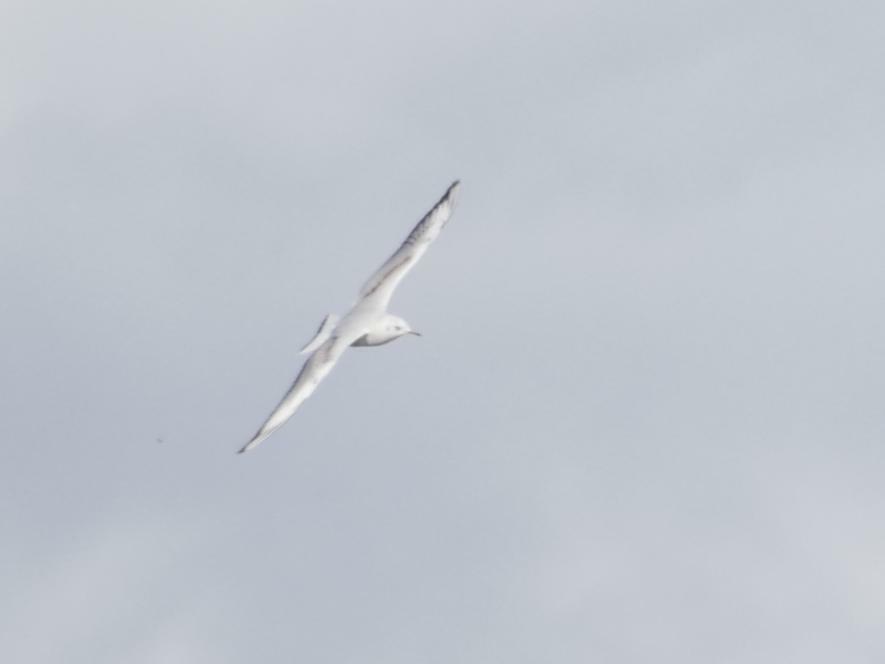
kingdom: Animalia
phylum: Chordata
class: Aves
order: Charadriiformes
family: Laridae
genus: Chroicocephalus
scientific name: Chroicocephalus ridibundus
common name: Black-headed gull
